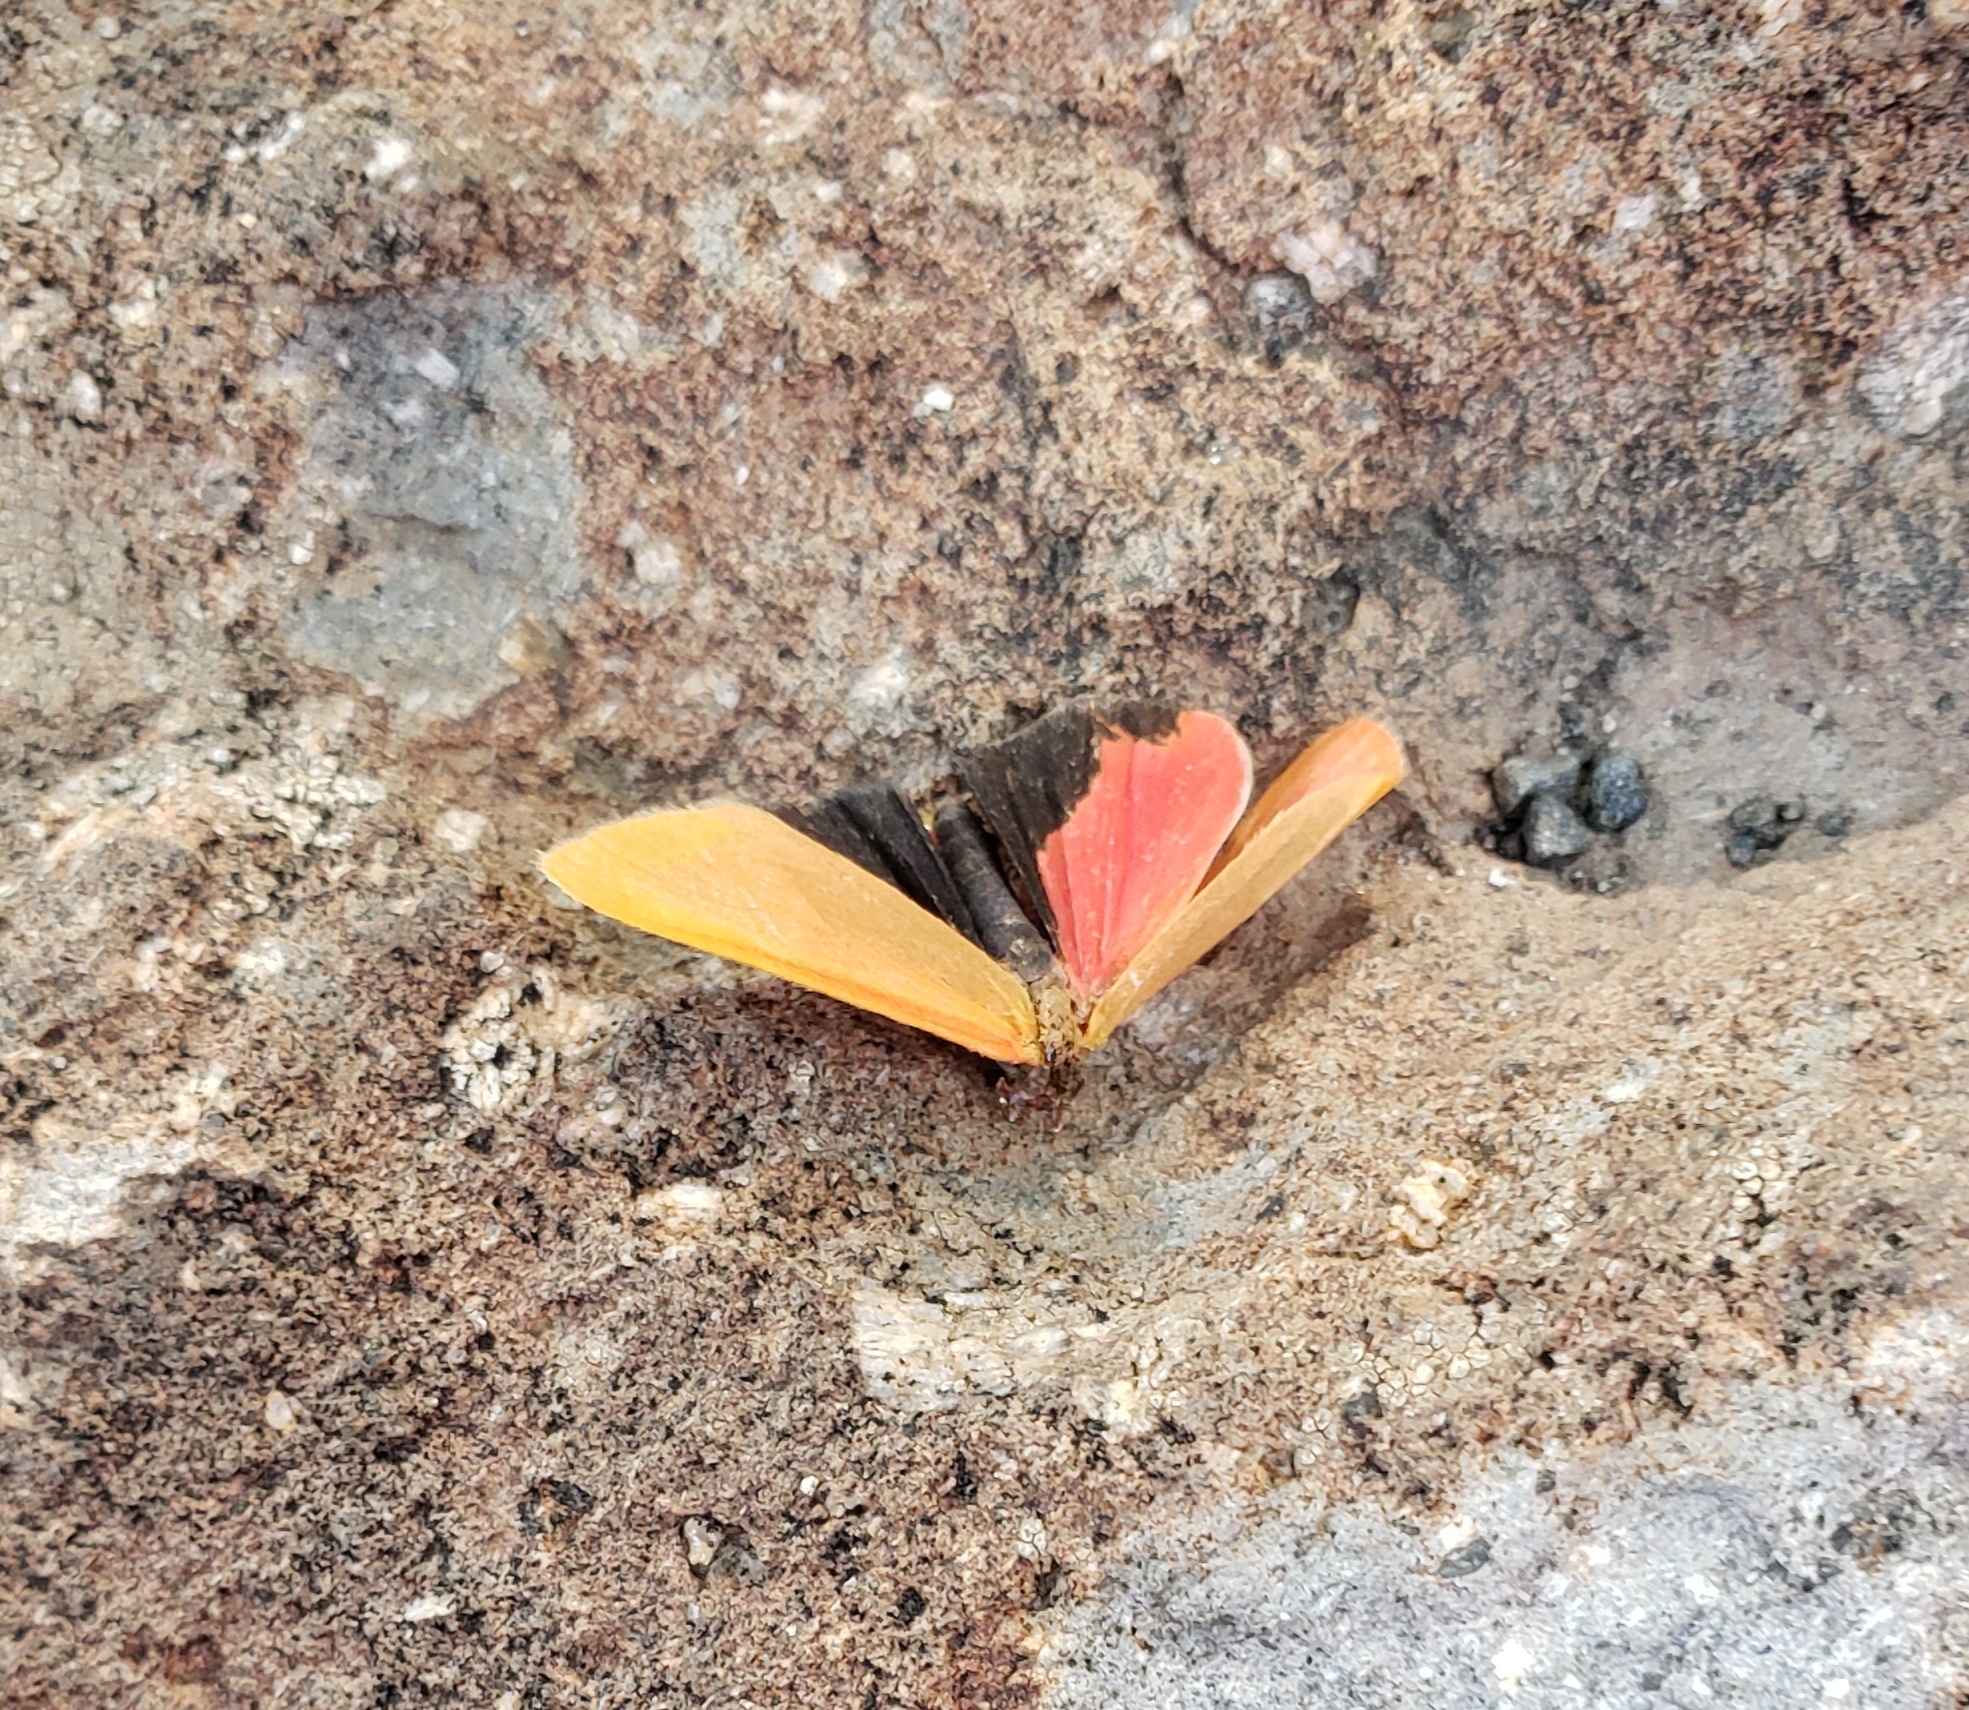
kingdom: Animalia
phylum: Arthropoda
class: Insecta
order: Lepidoptera
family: Erebidae
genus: Virbia
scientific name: Virbia ostenta
